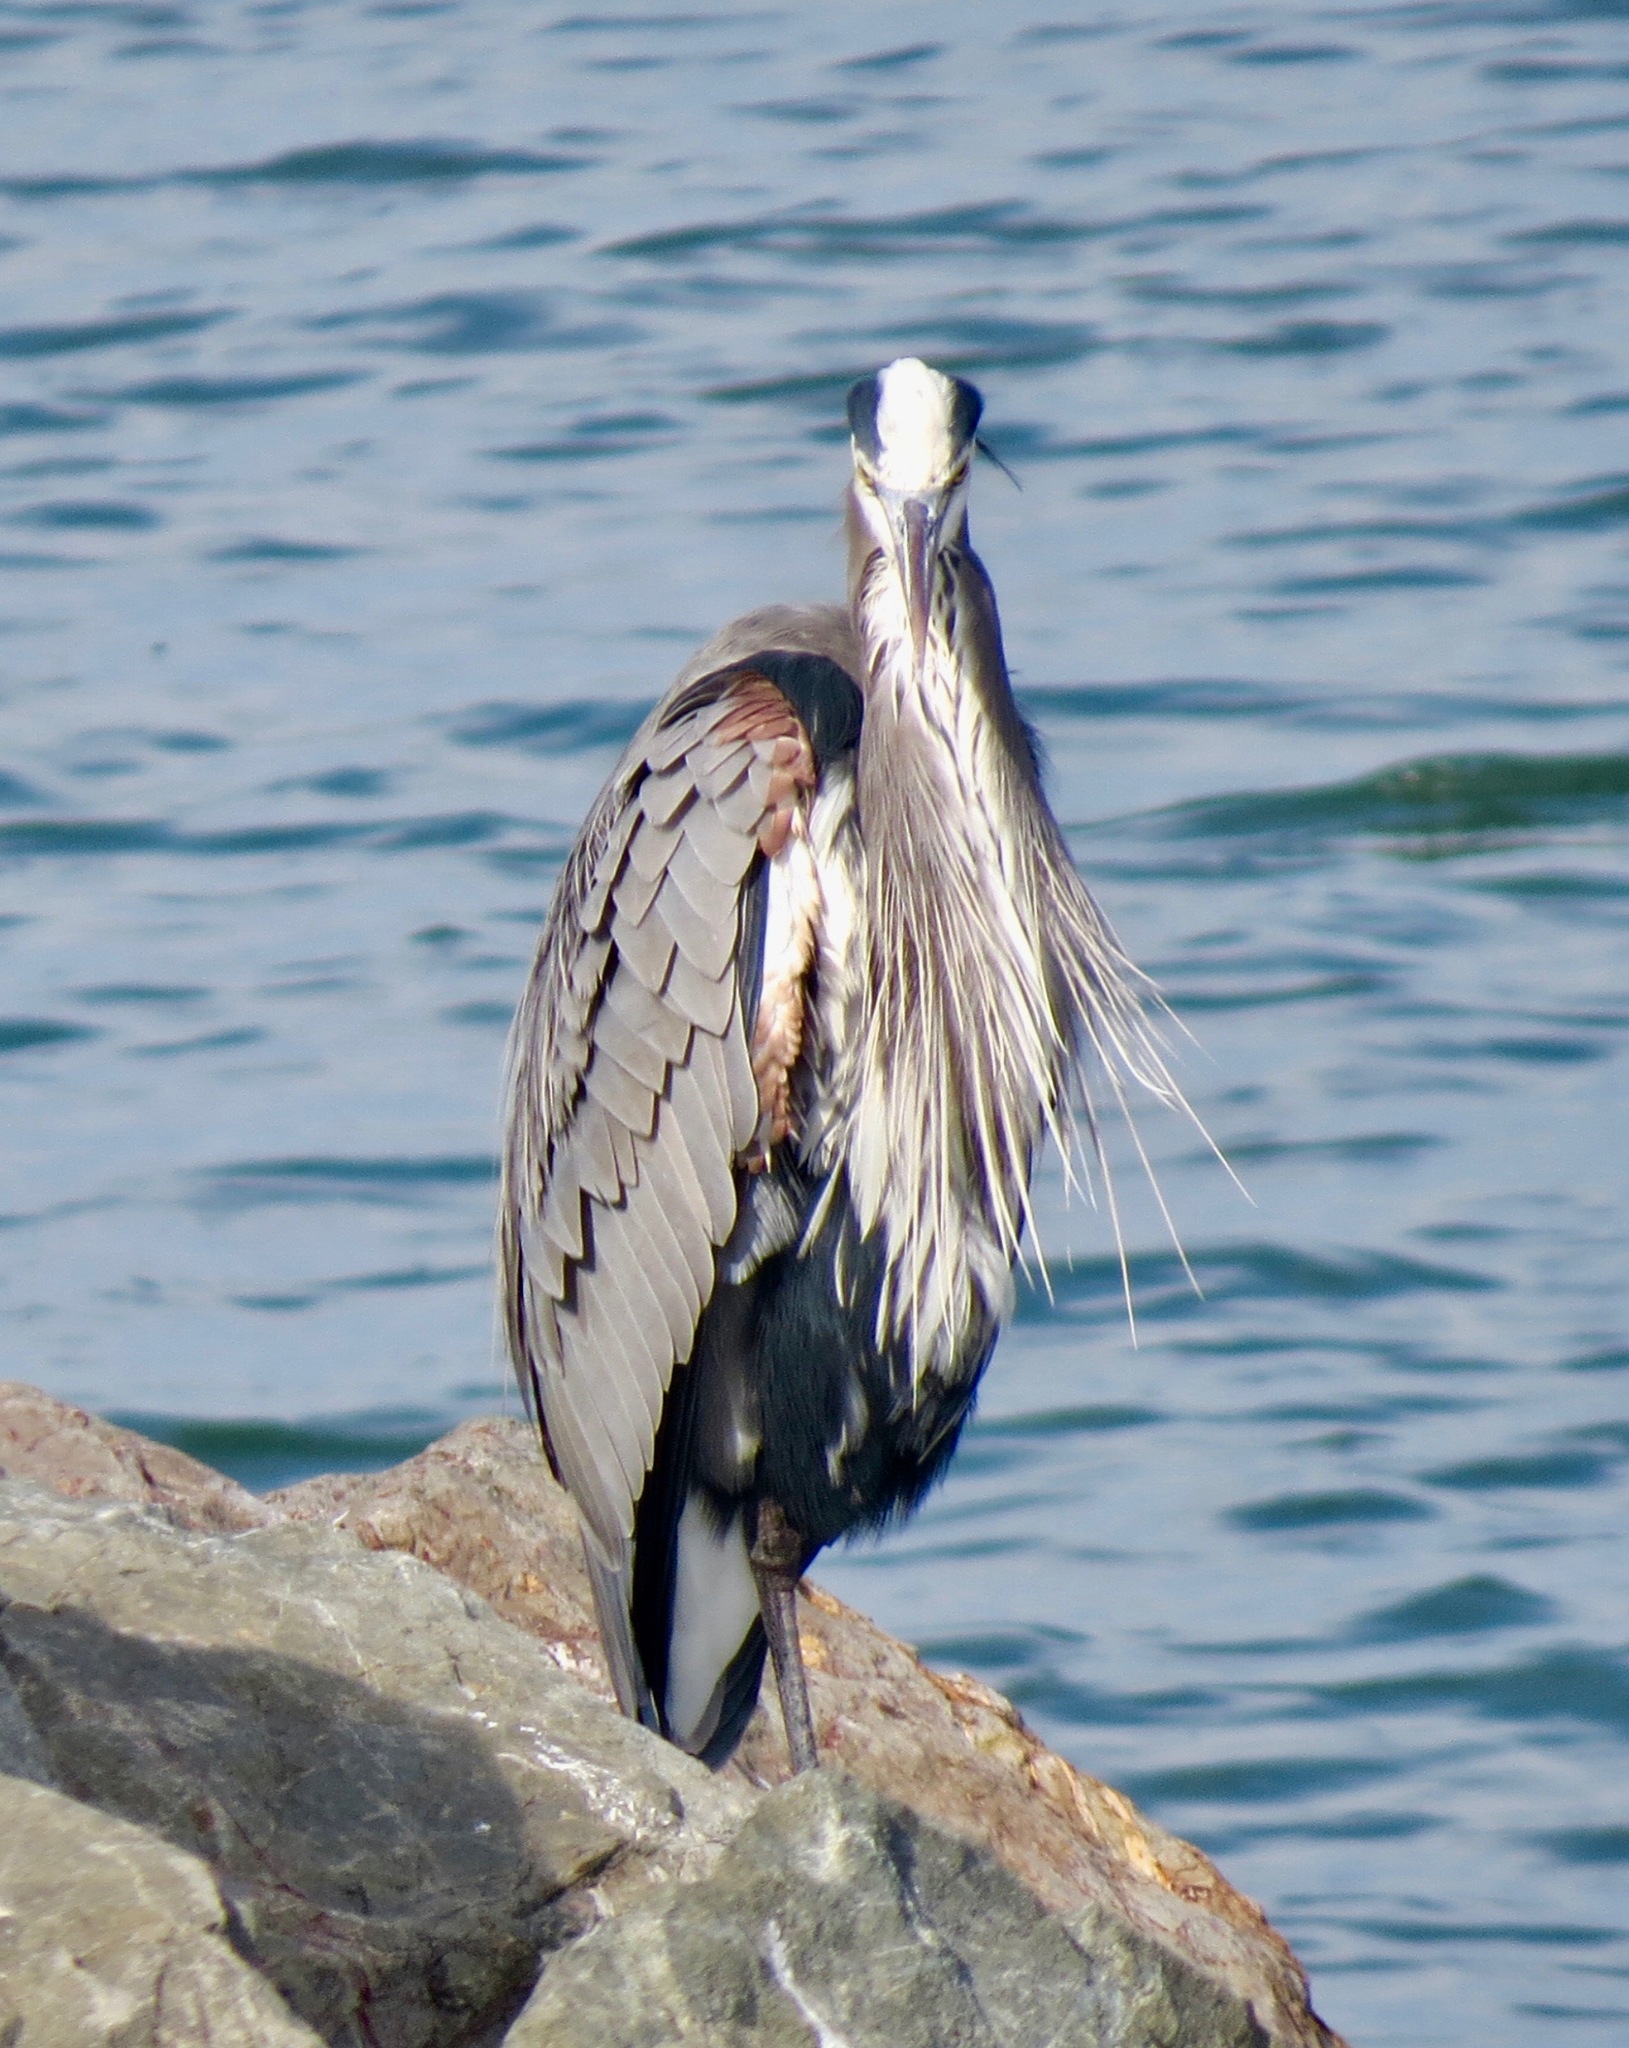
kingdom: Animalia
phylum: Chordata
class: Aves
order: Pelecaniformes
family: Ardeidae
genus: Ardea
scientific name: Ardea herodias
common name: Great blue heron
